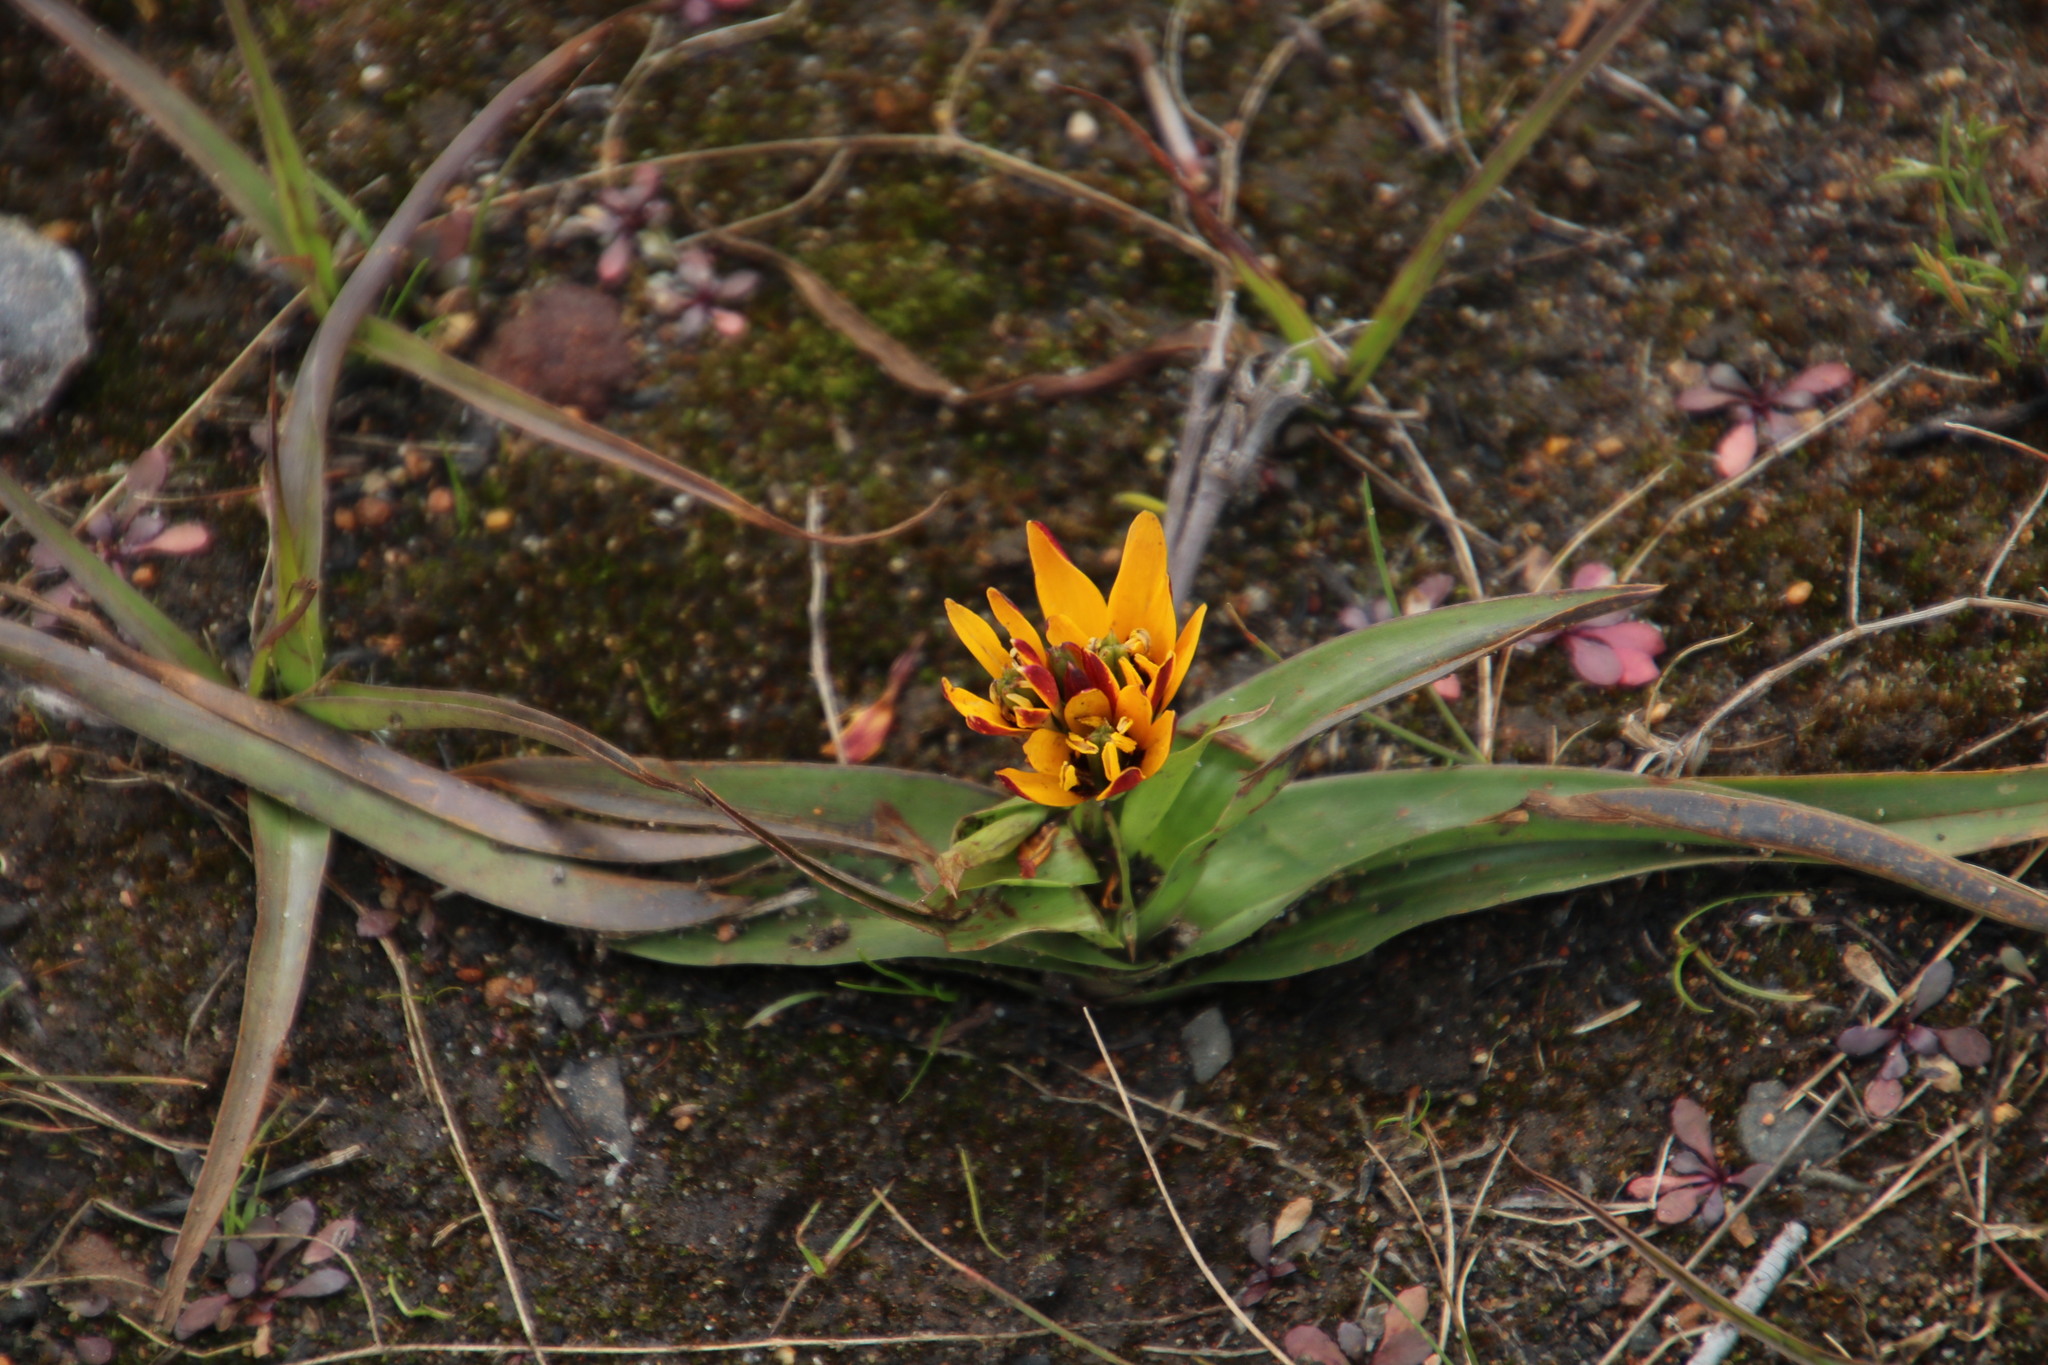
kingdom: Plantae
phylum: Tracheophyta
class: Liliopsida
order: Liliales
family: Colchicaceae
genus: Baeometra
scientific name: Baeometra uniflora
